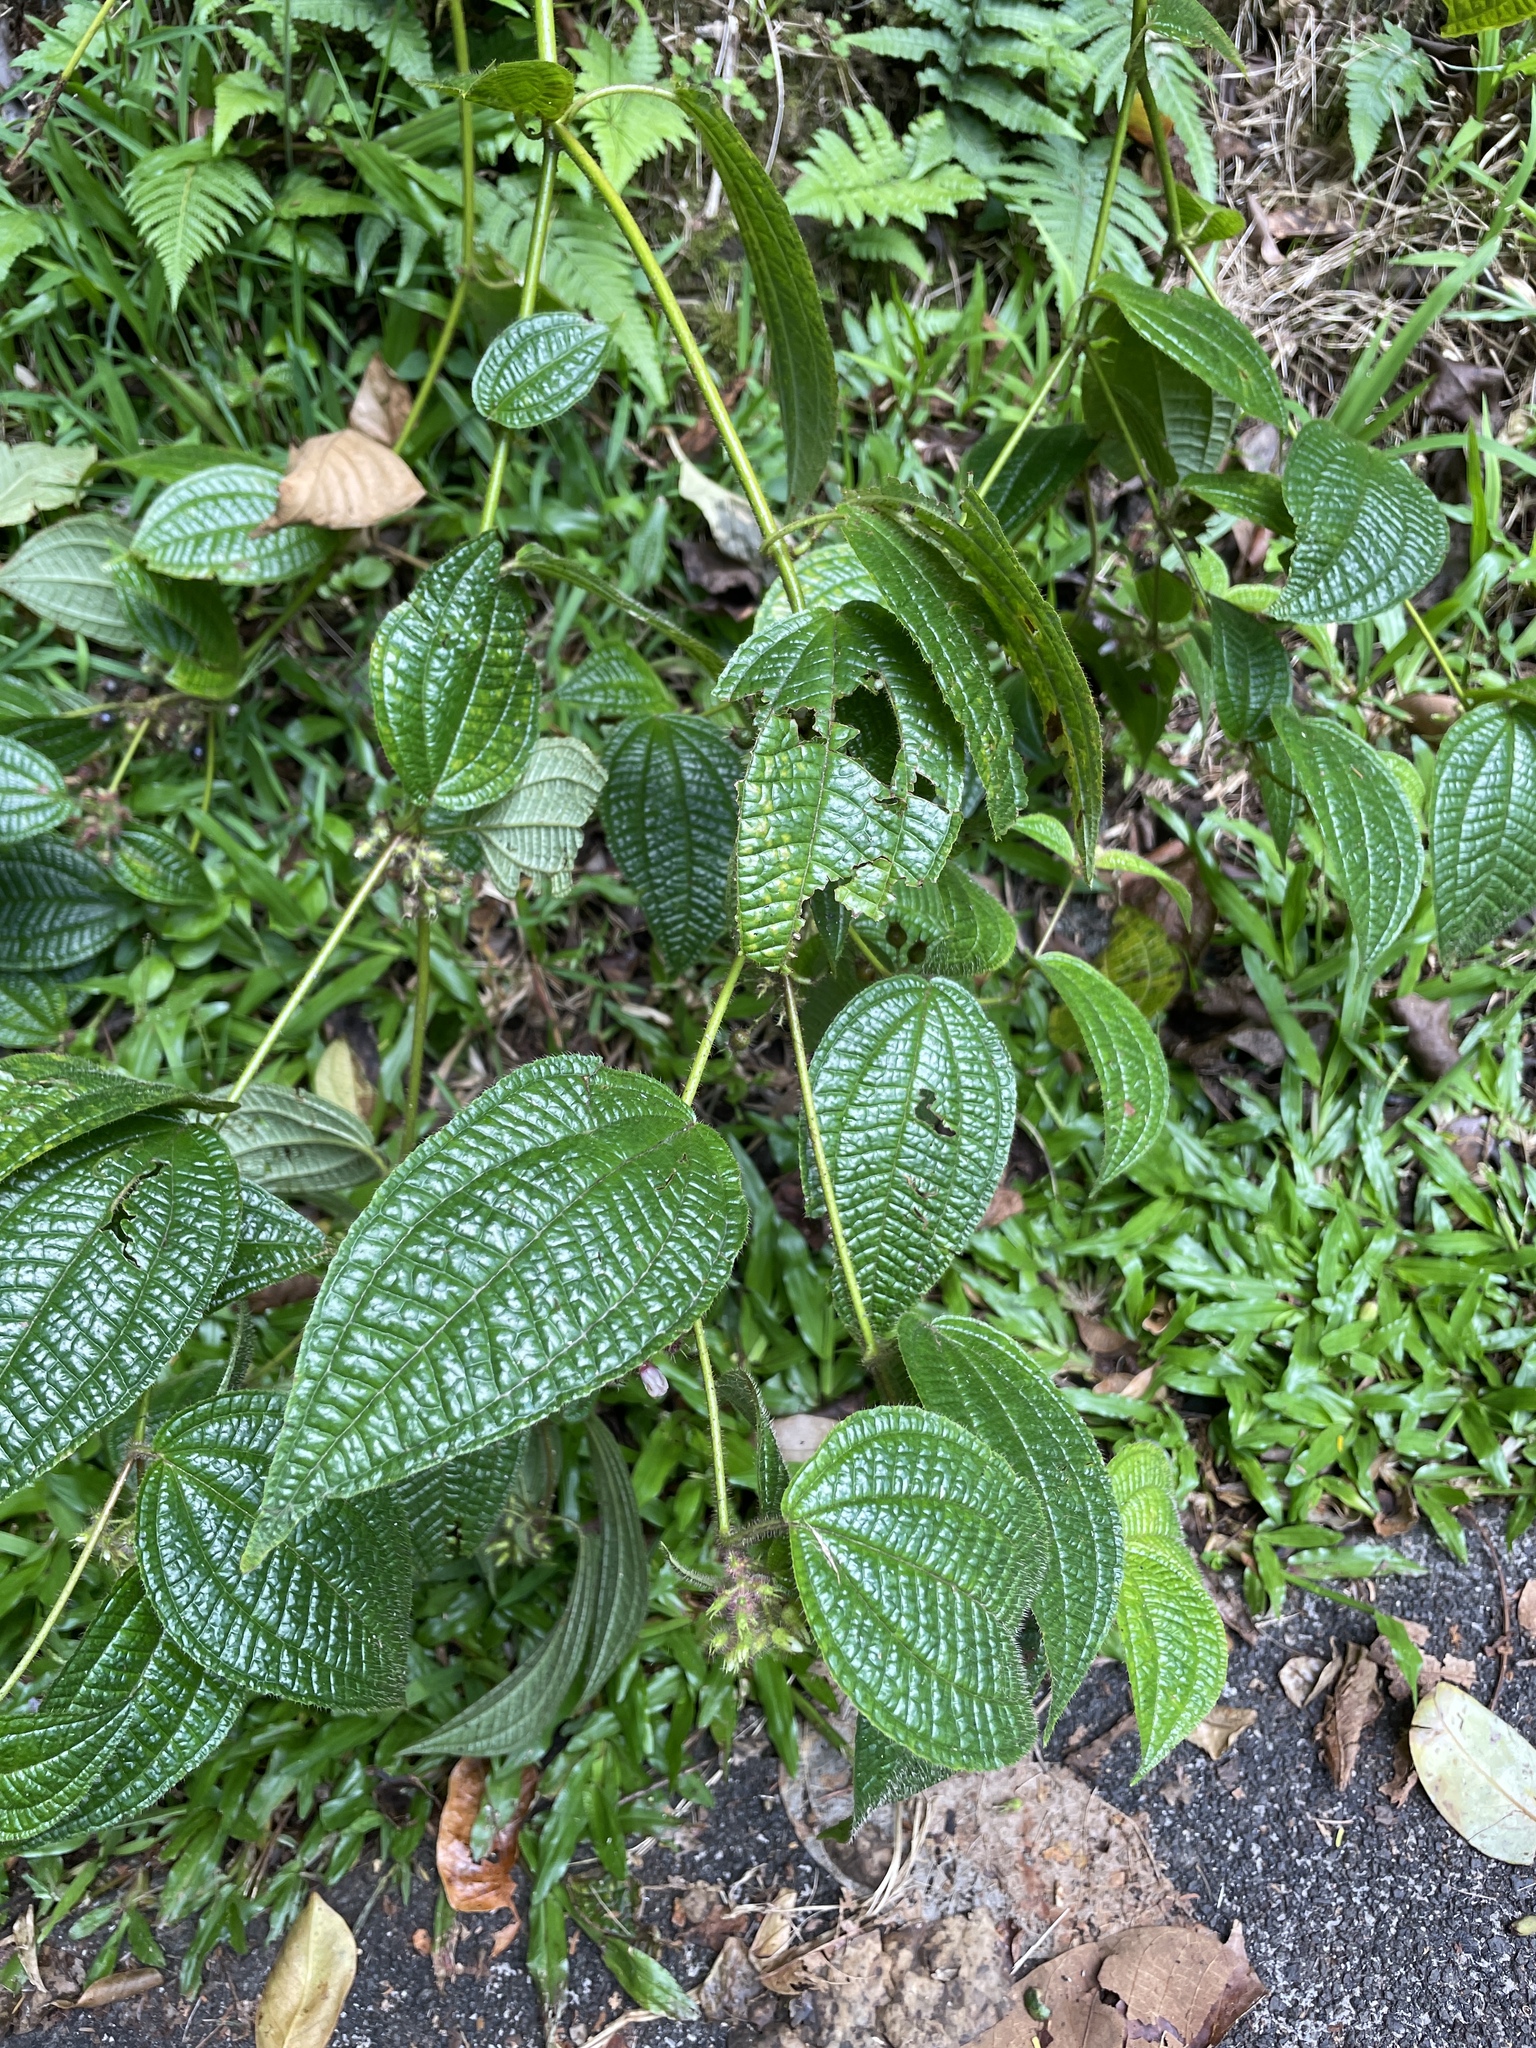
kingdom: Plantae
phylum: Tracheophyta
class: Magnoliopsida
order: Myrtales
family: Melastomataceae
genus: Miconia
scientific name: Miconia crenata
